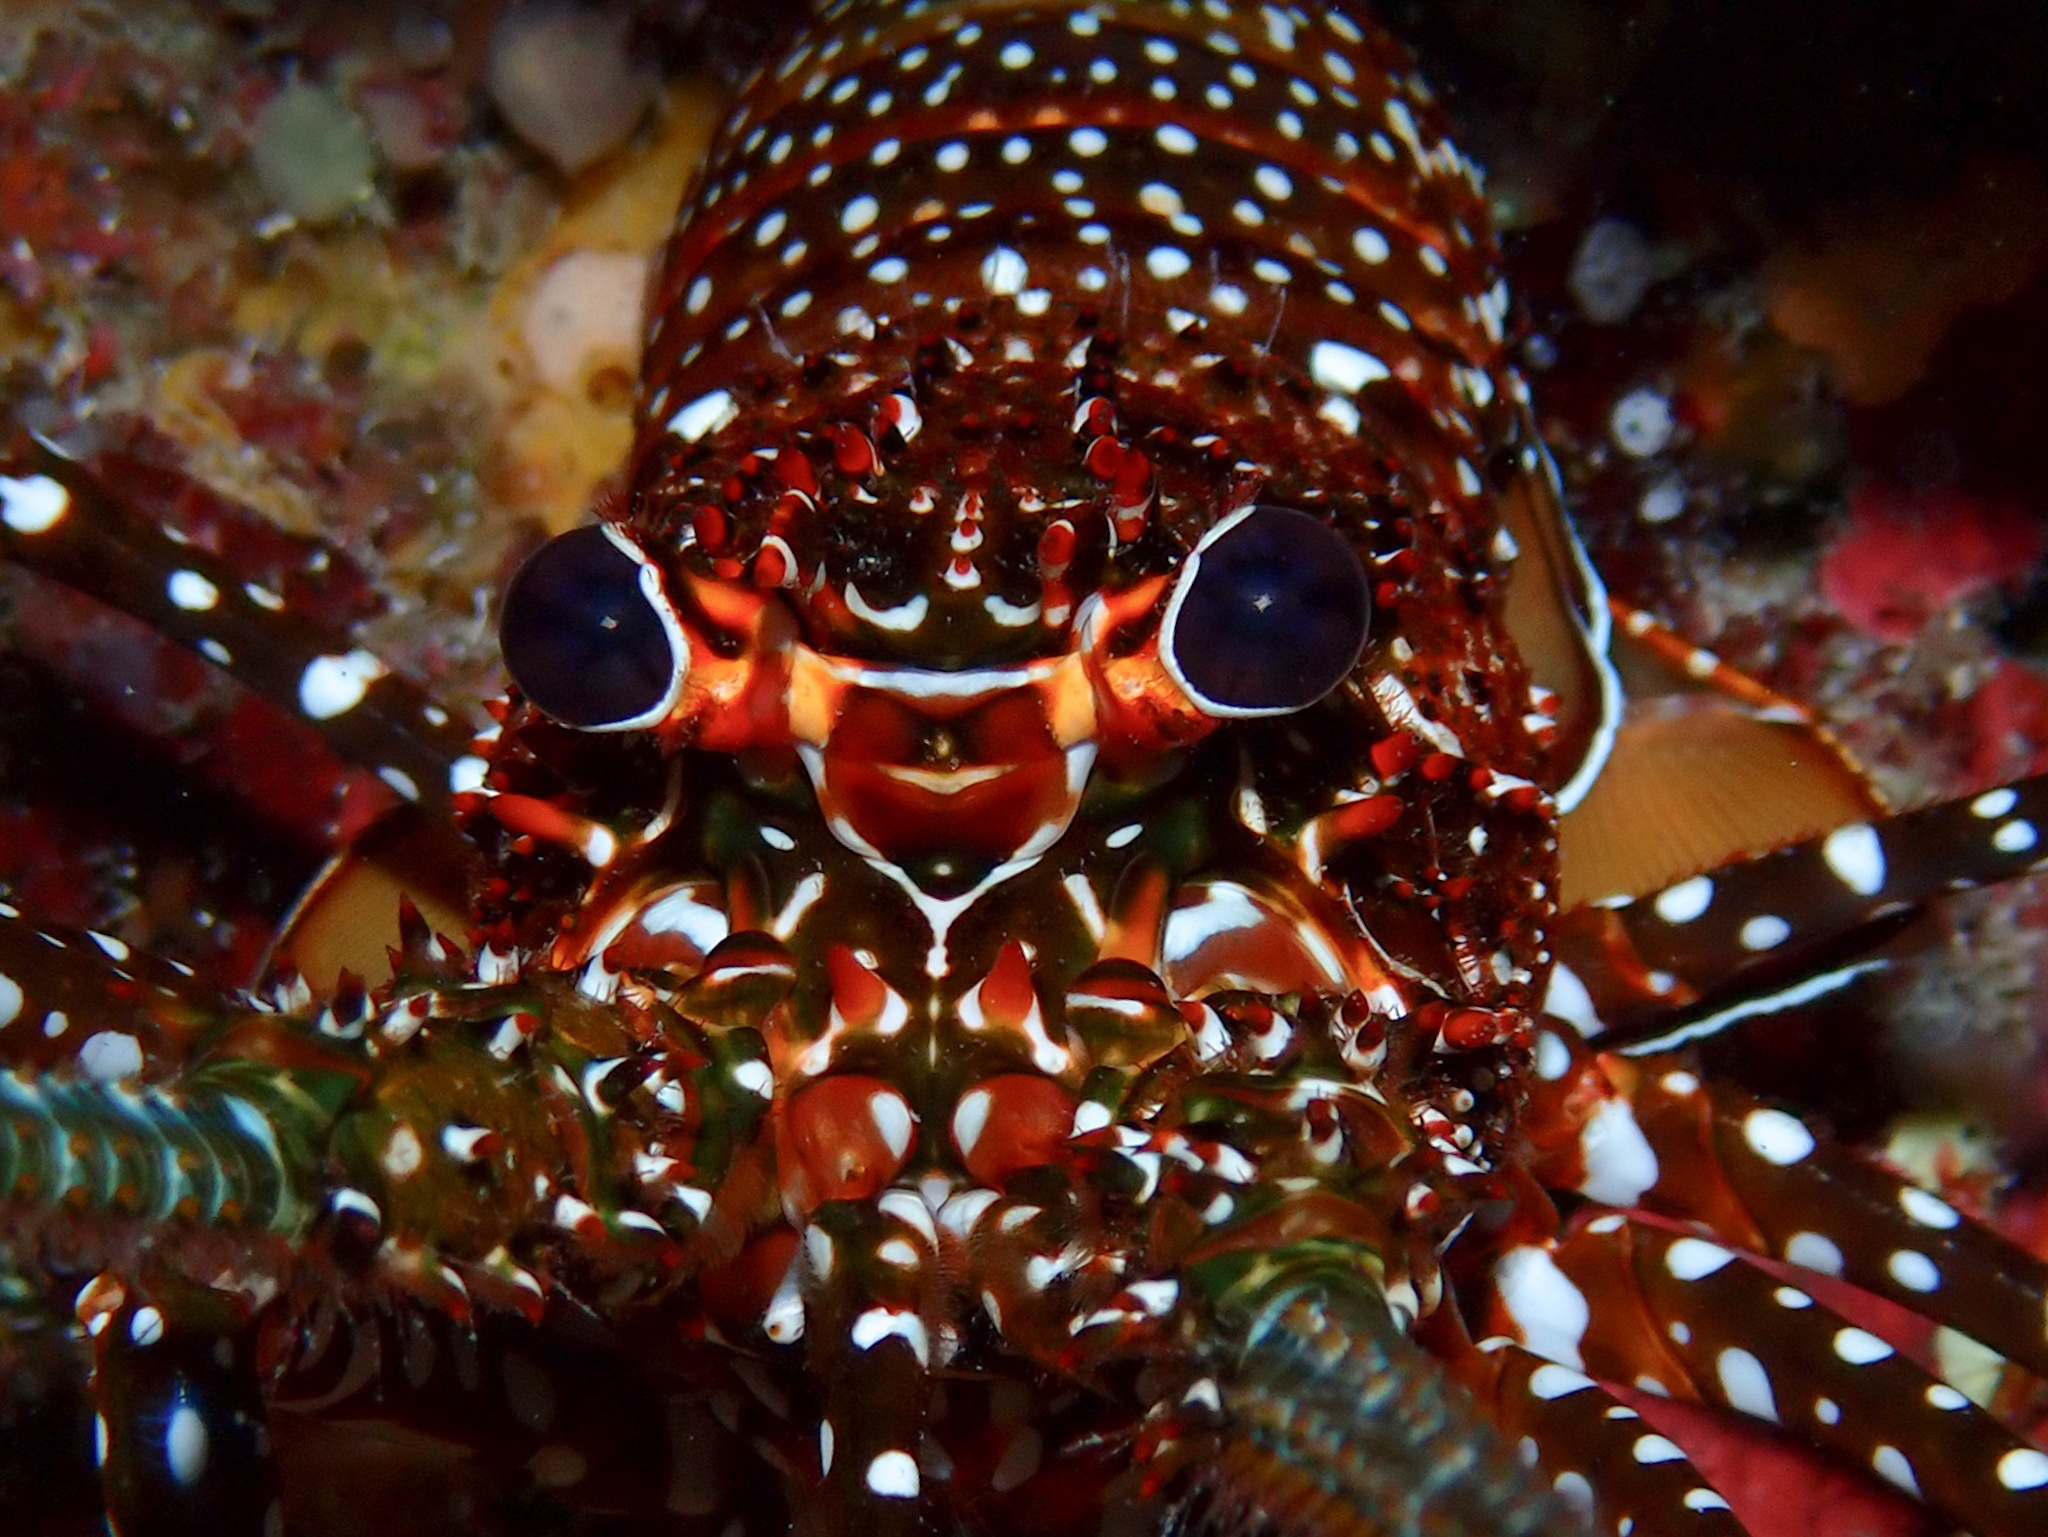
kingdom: Animalia
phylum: Arthropoda
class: Malacostraca
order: Decapoda
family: Palinuridae
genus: Panulirus
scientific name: Panulirus guttatus
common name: Spotted spiny lobster
